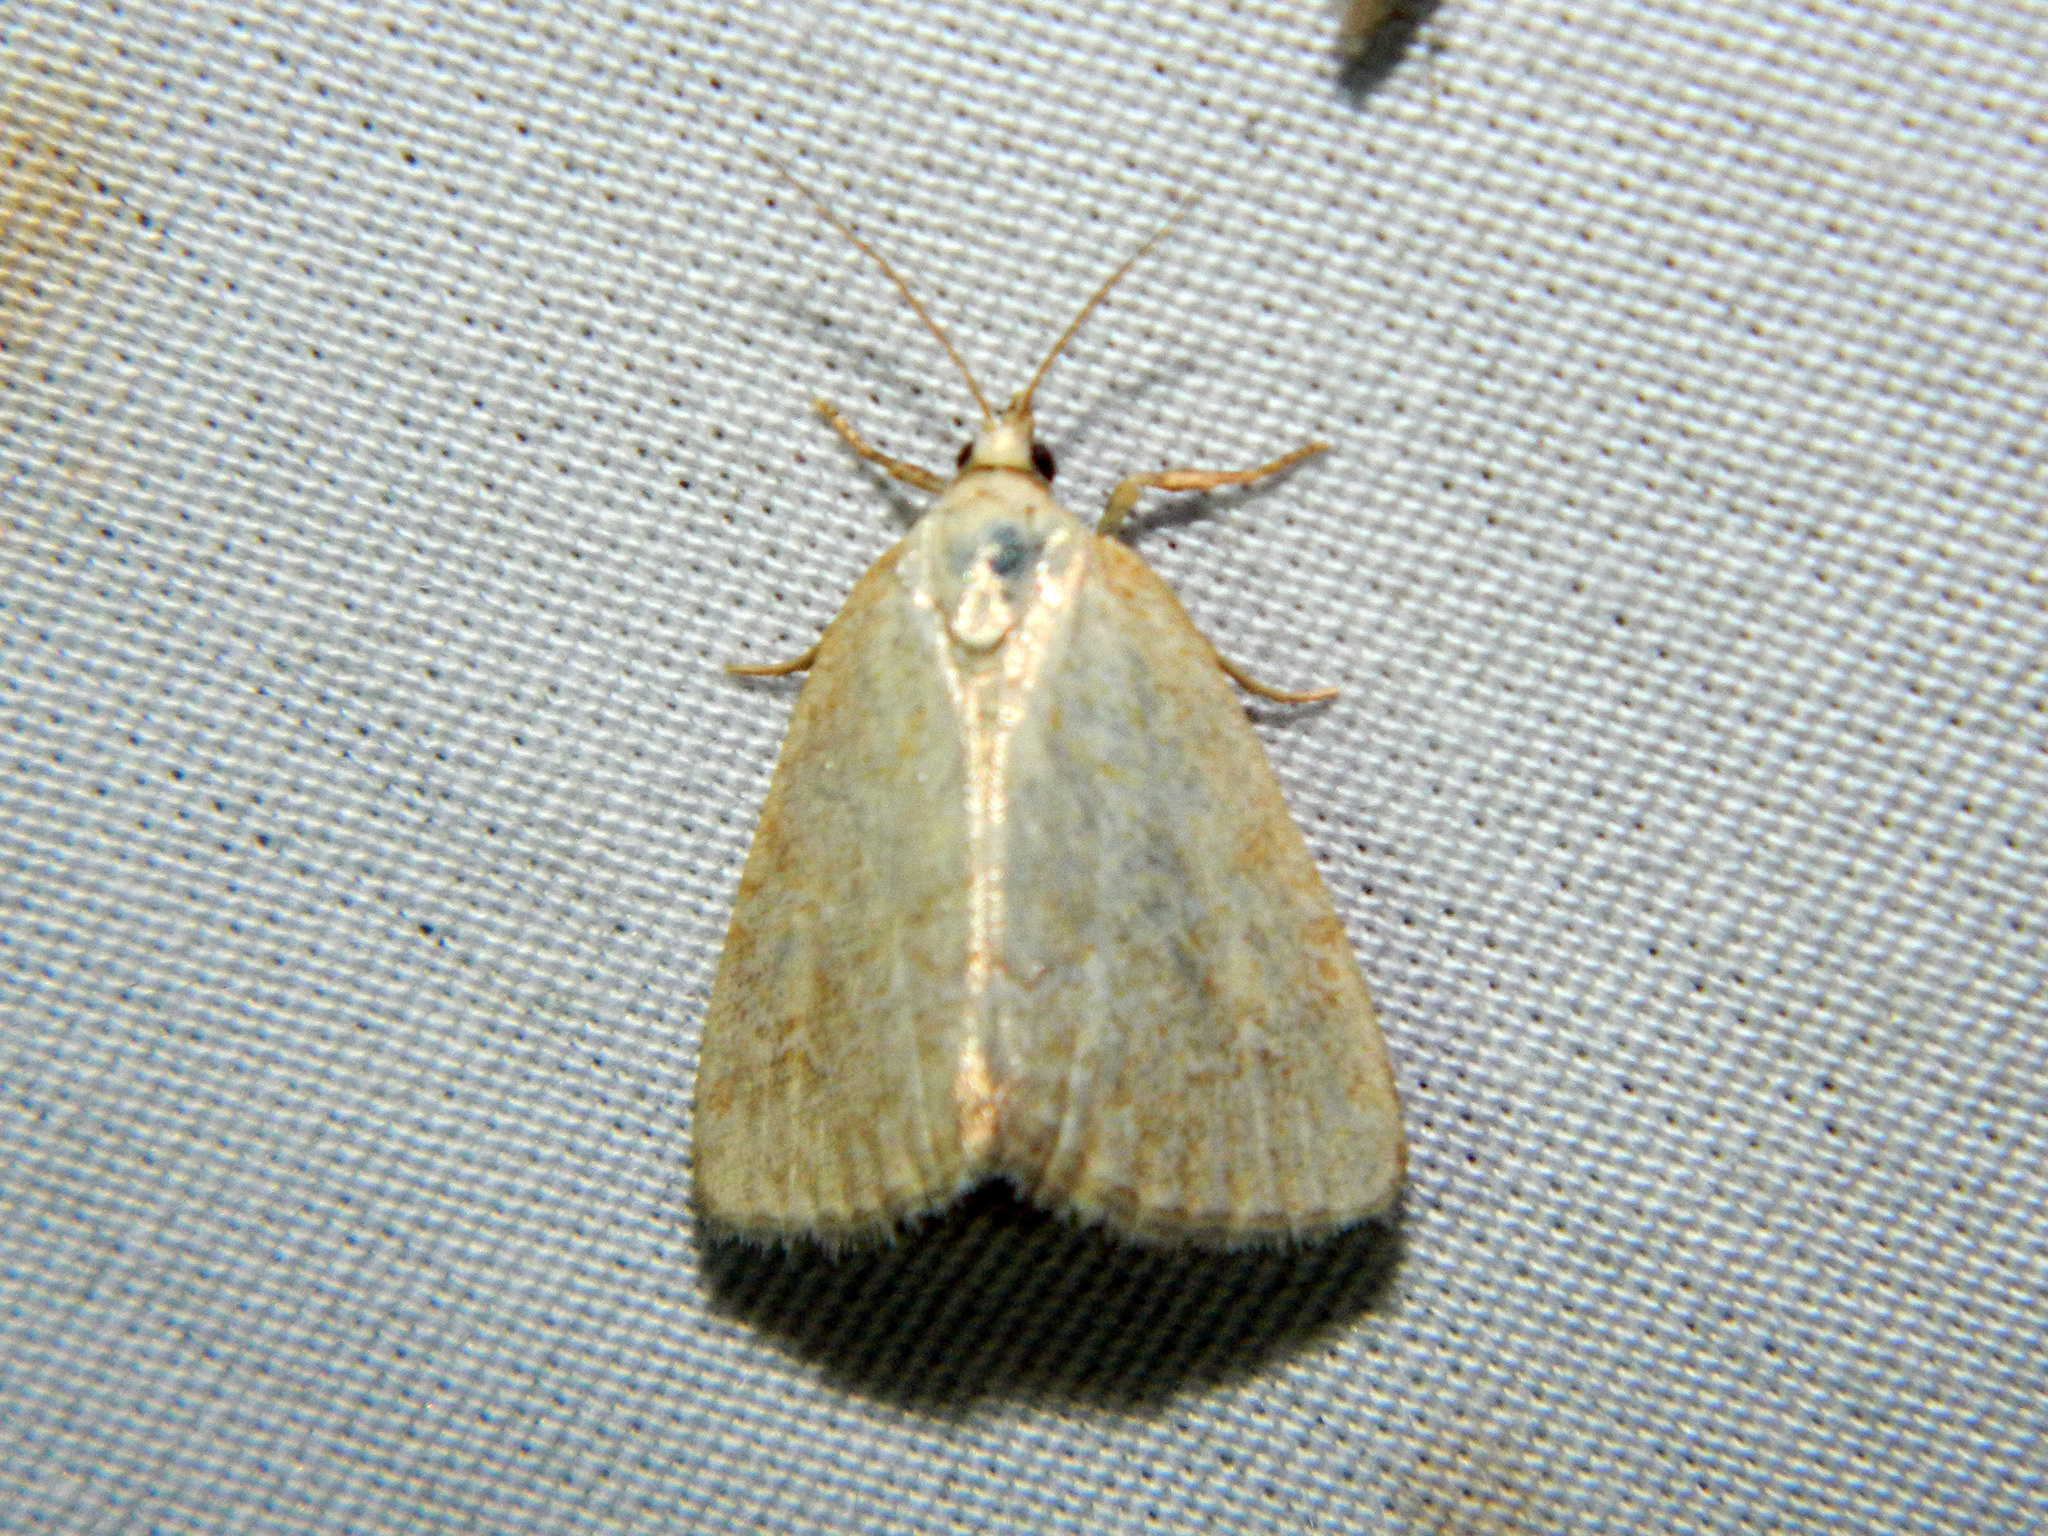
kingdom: Animalia
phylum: Arthropoda
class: Insecta
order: Lepidoptera
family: Noctuidae
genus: Protodeltote
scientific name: Protodeltote albidula
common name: Pale glyph
